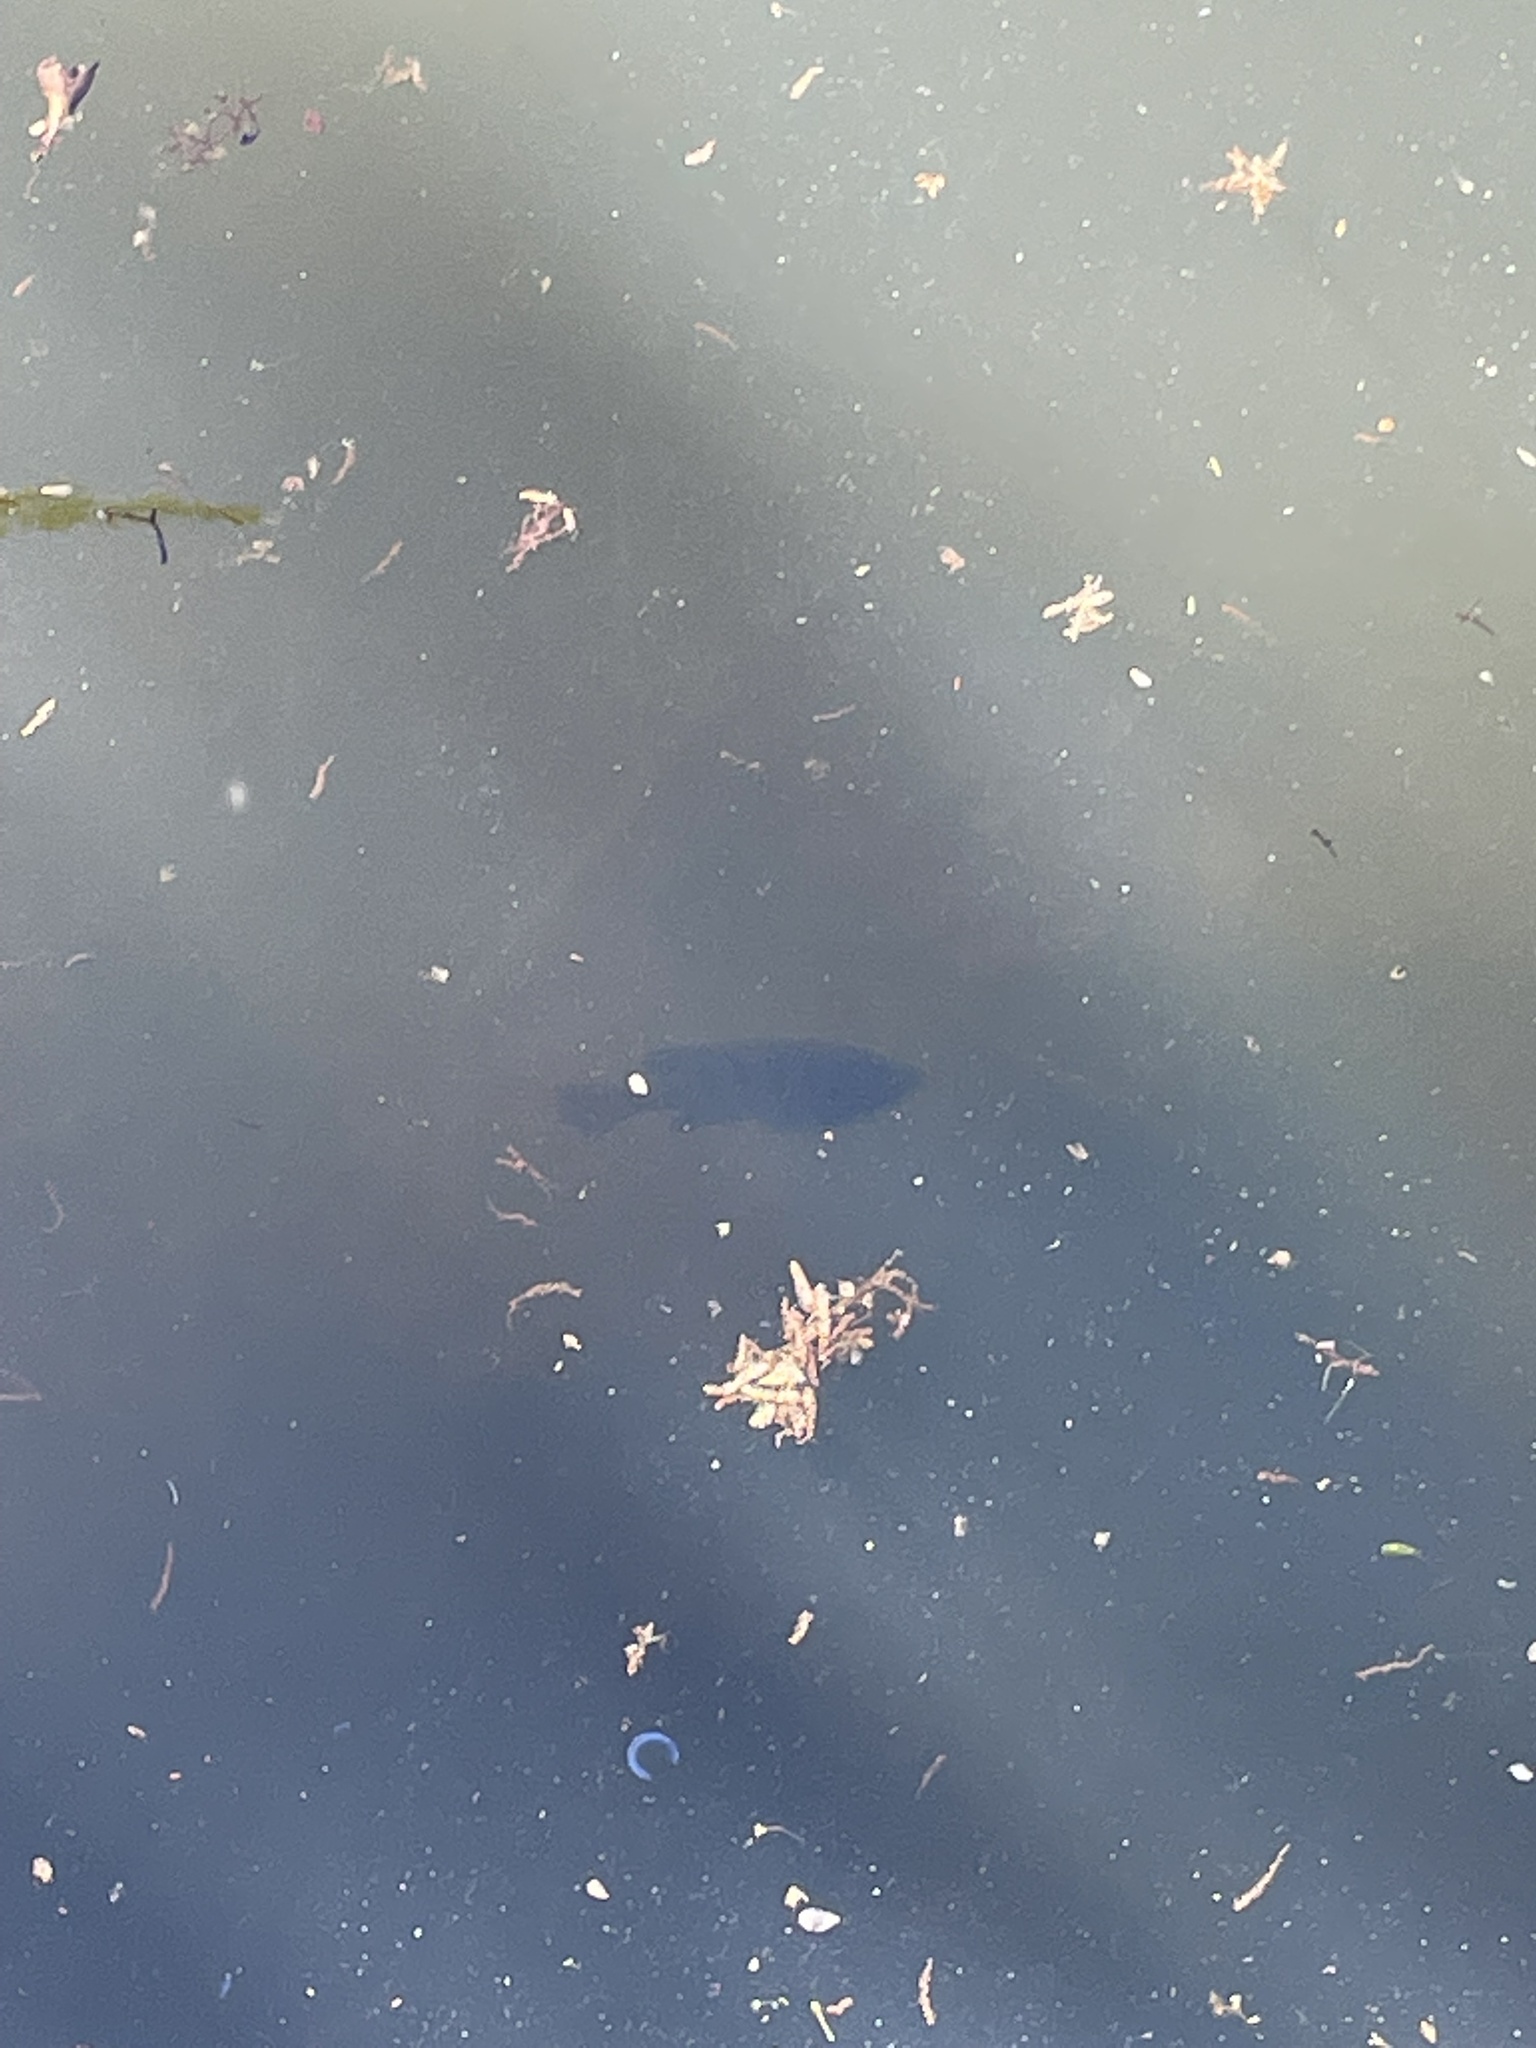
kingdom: Animalia
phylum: Chordata
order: Perciformes
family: Centrarchidae
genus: Lepomis
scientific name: Lepomis macrochirus
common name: Bluegill
